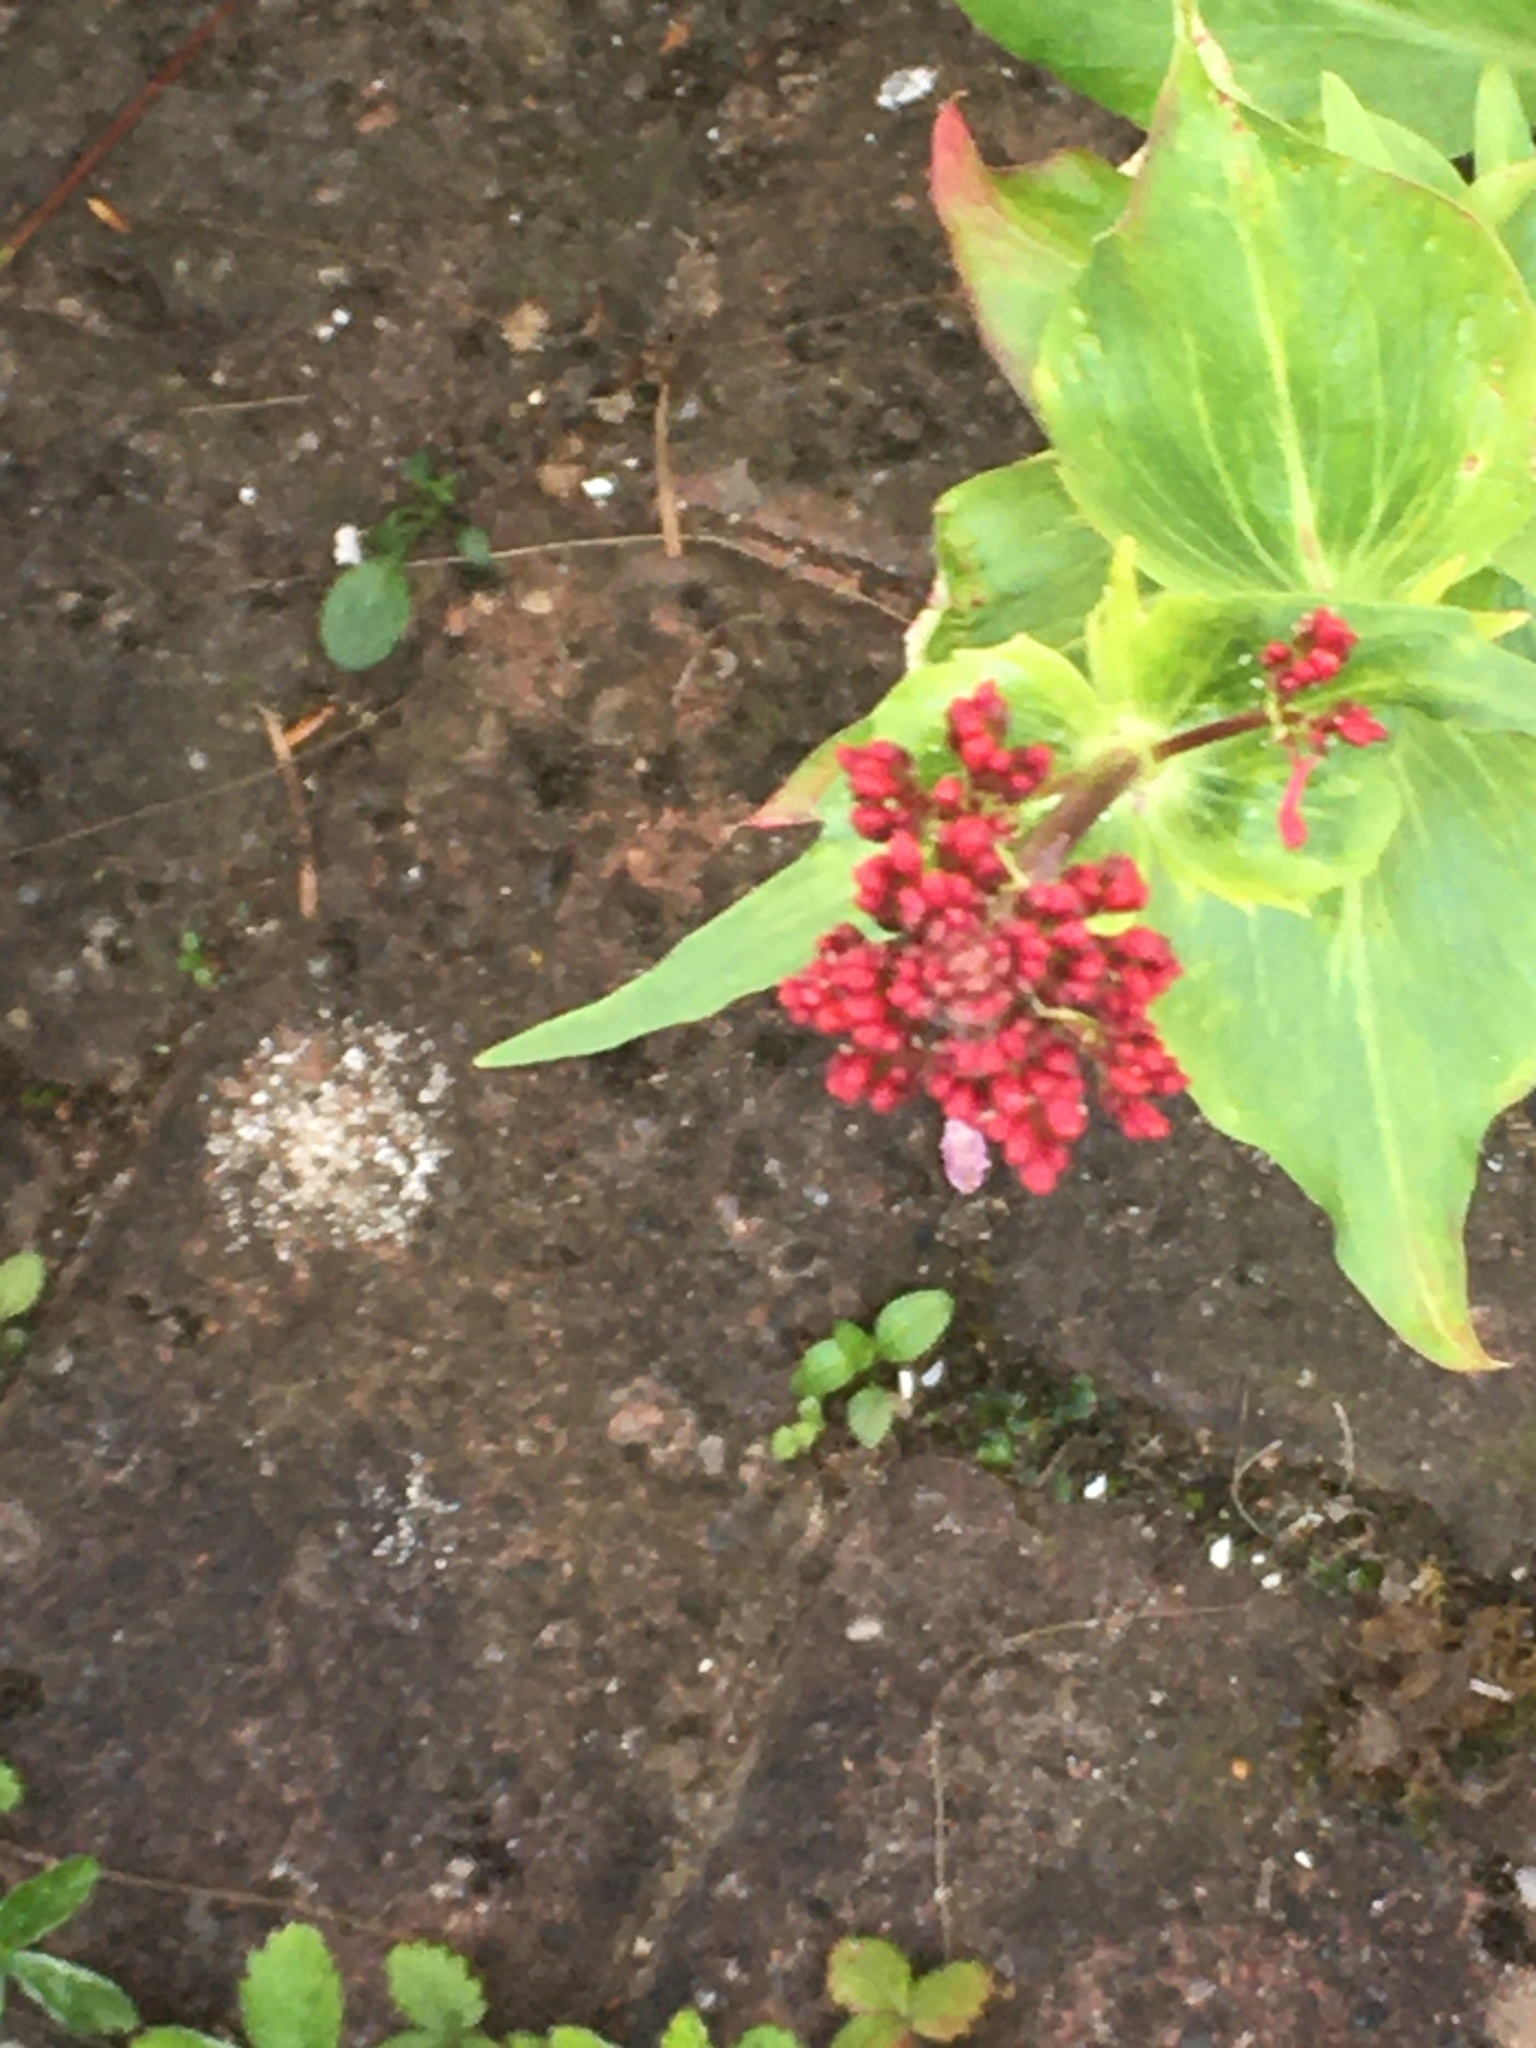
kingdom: Plantae
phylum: Tracheophyta
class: Magnoliopsida
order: Dipsacales
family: Caprifoliaceae
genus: Centranthus
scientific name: Centranthus ruber
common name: Red valerian
